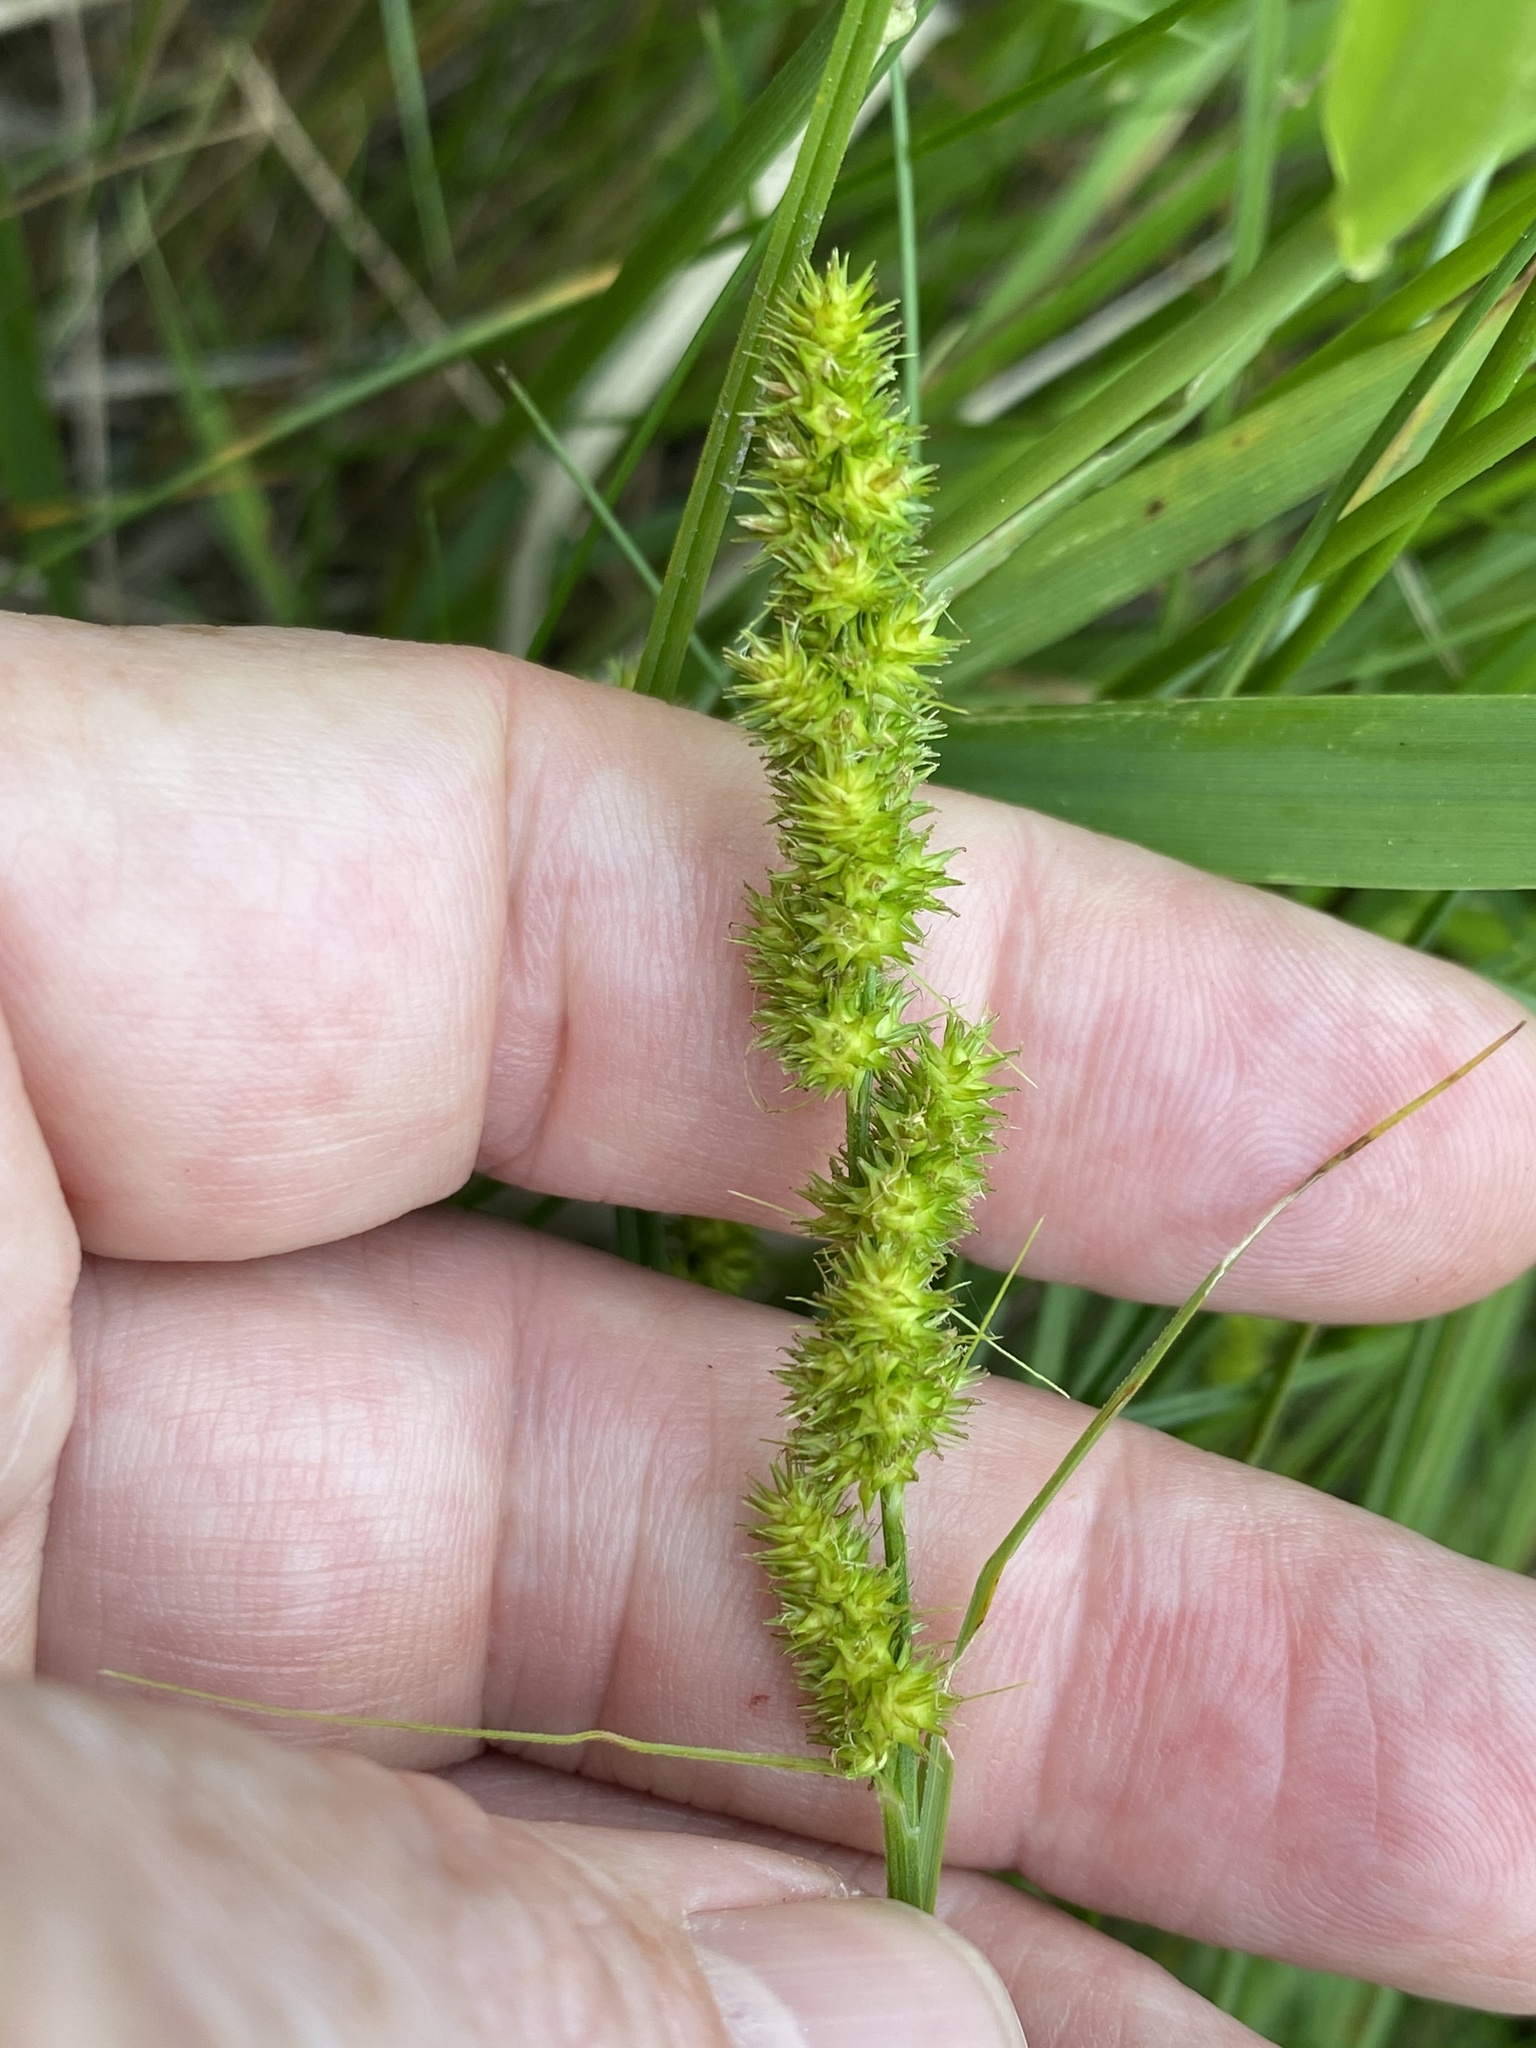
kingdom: Plantae
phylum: Tracheophyta
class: Liliopsida
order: Poales
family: Cyperaceae
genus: Carex
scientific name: Carex vulpinoidea
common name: American fox-sedge
